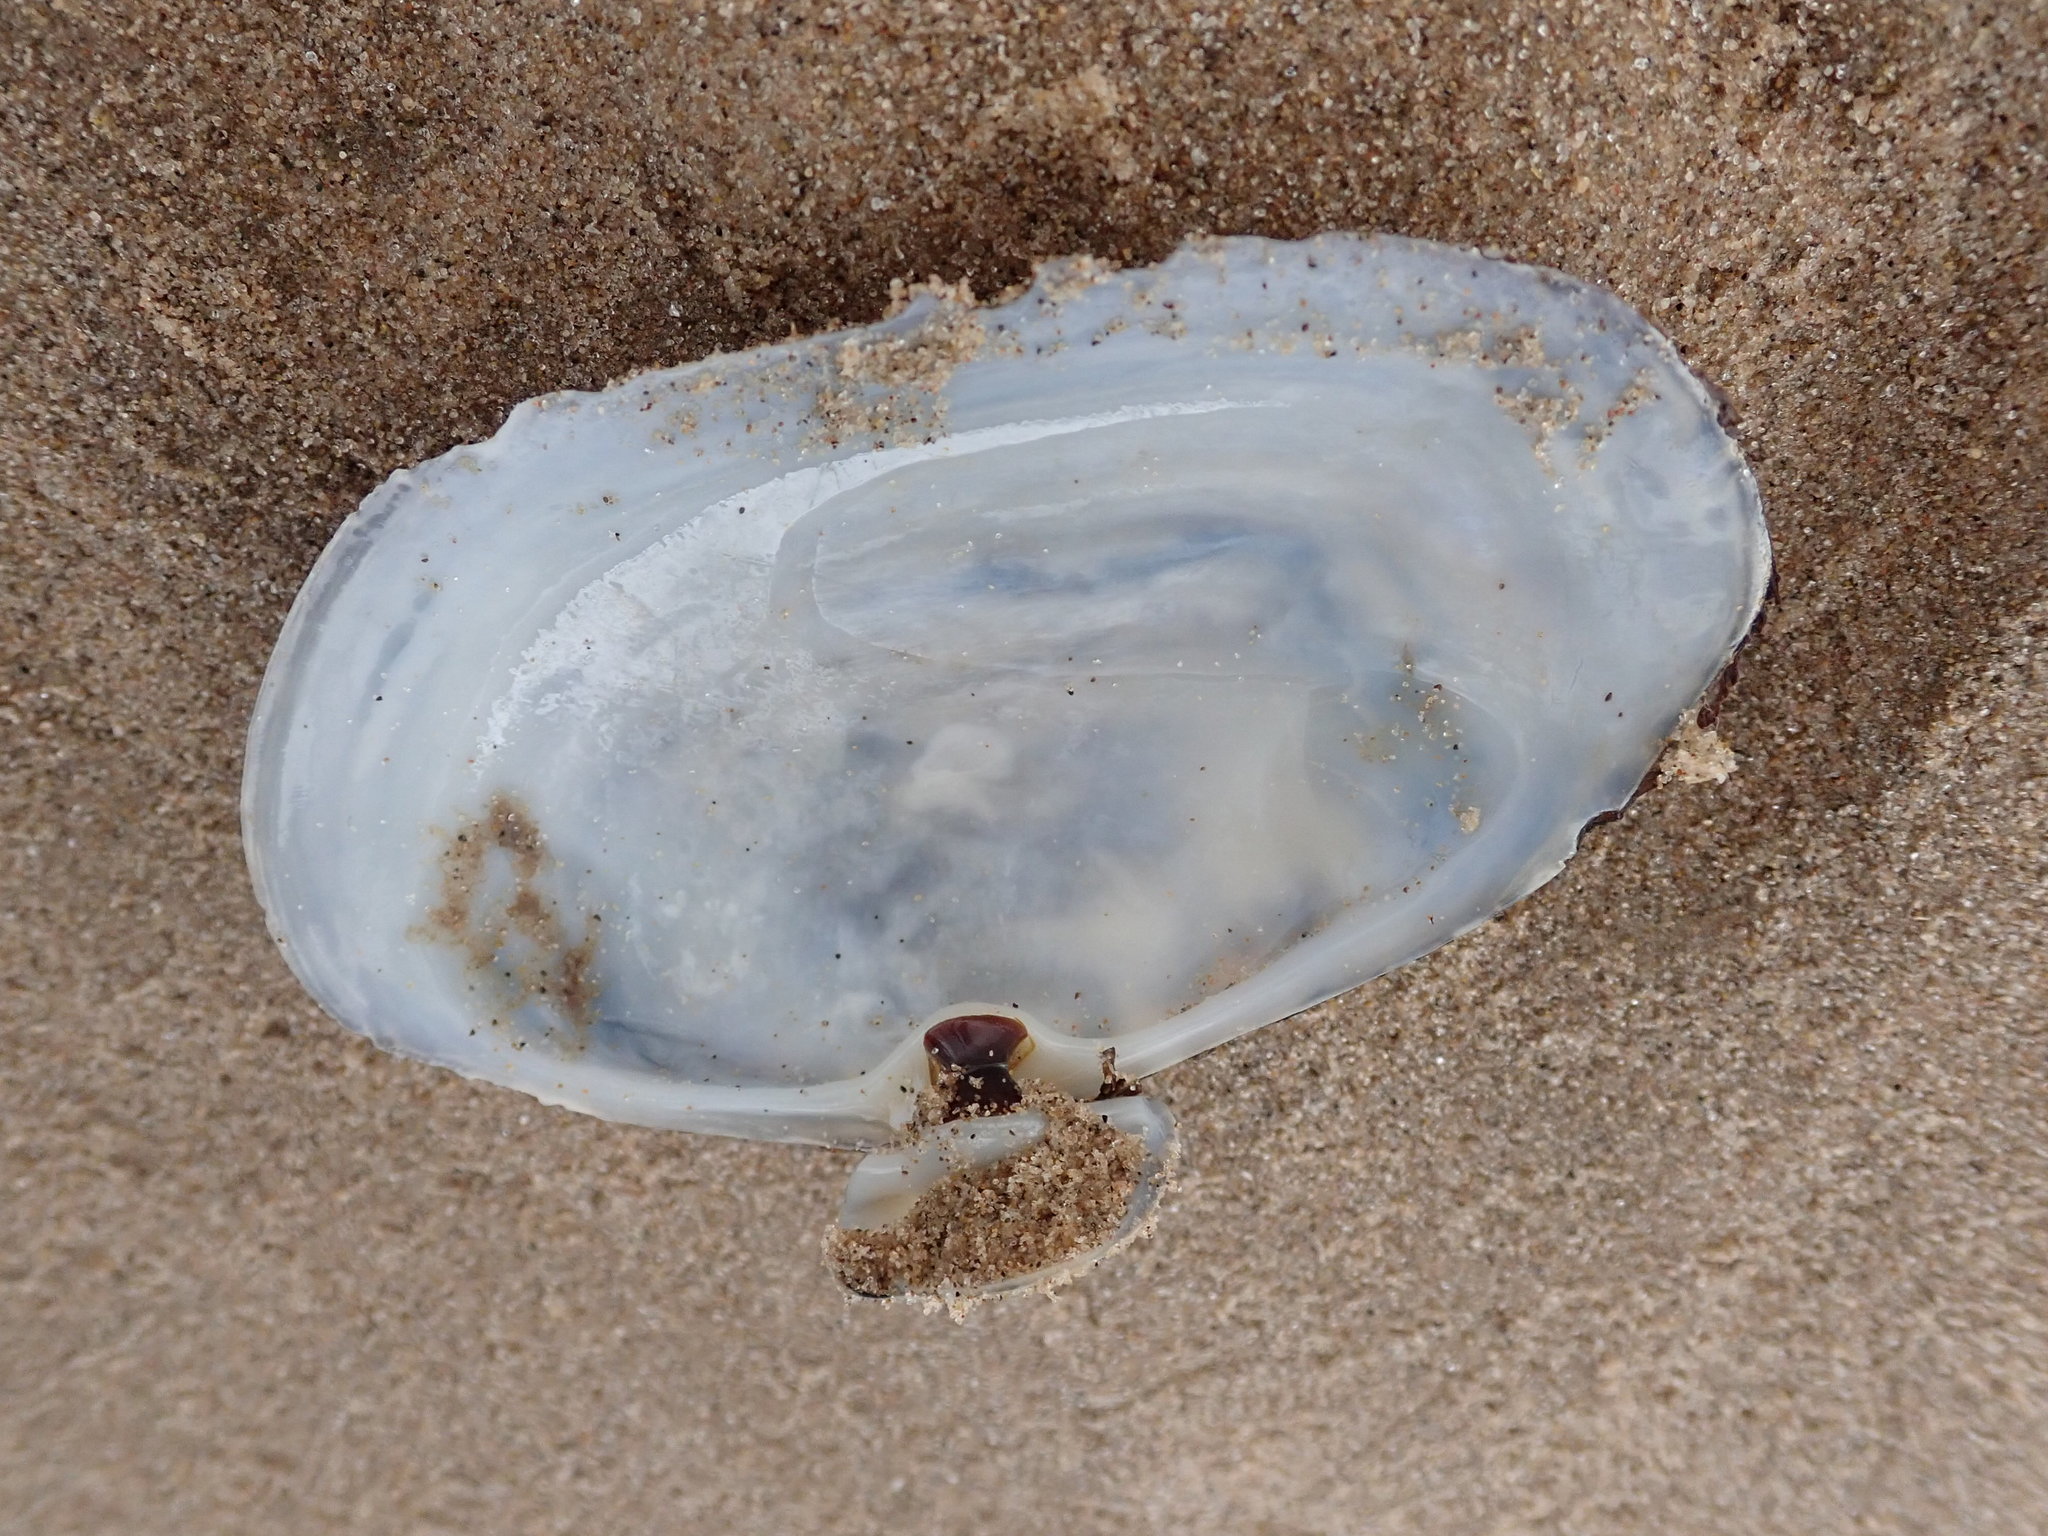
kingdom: Animalia
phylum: Mollusca
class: Bivalvia
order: Venerida
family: Mactridae
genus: Lutraria
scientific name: Lutraria lutraria
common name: Common otter shell
